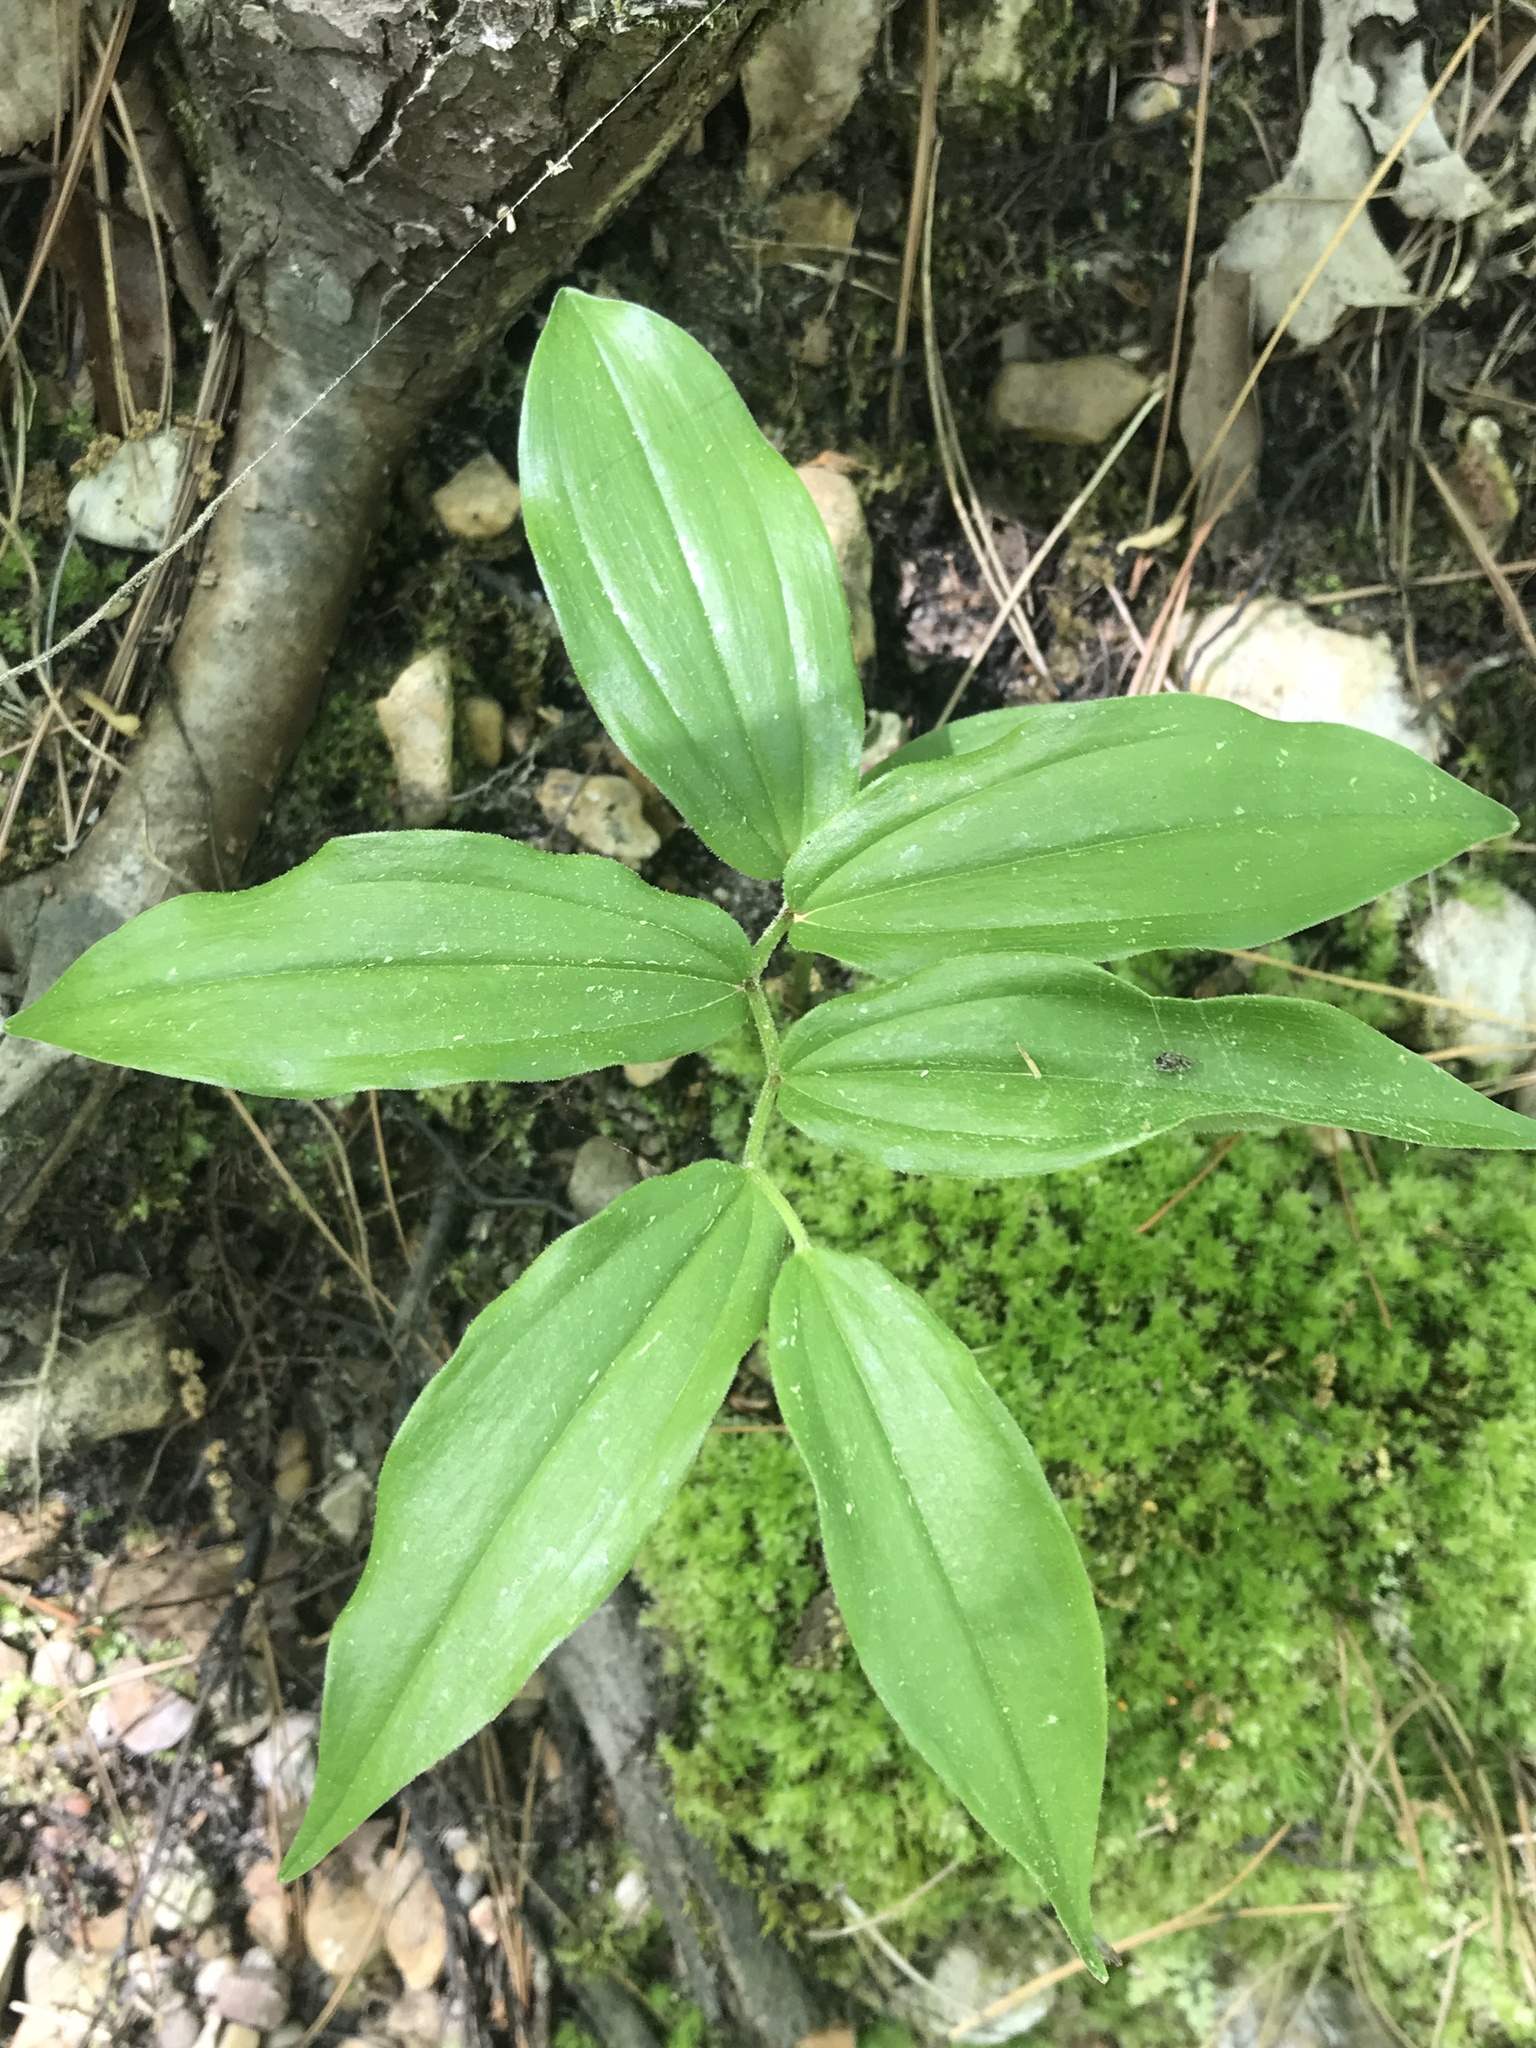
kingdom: Plantae
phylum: Tracheophyta
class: Liliopsida
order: Asparagales
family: Asparagaceae
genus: Maianthemum
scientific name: Maianthemum racemosum
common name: False spikenard
